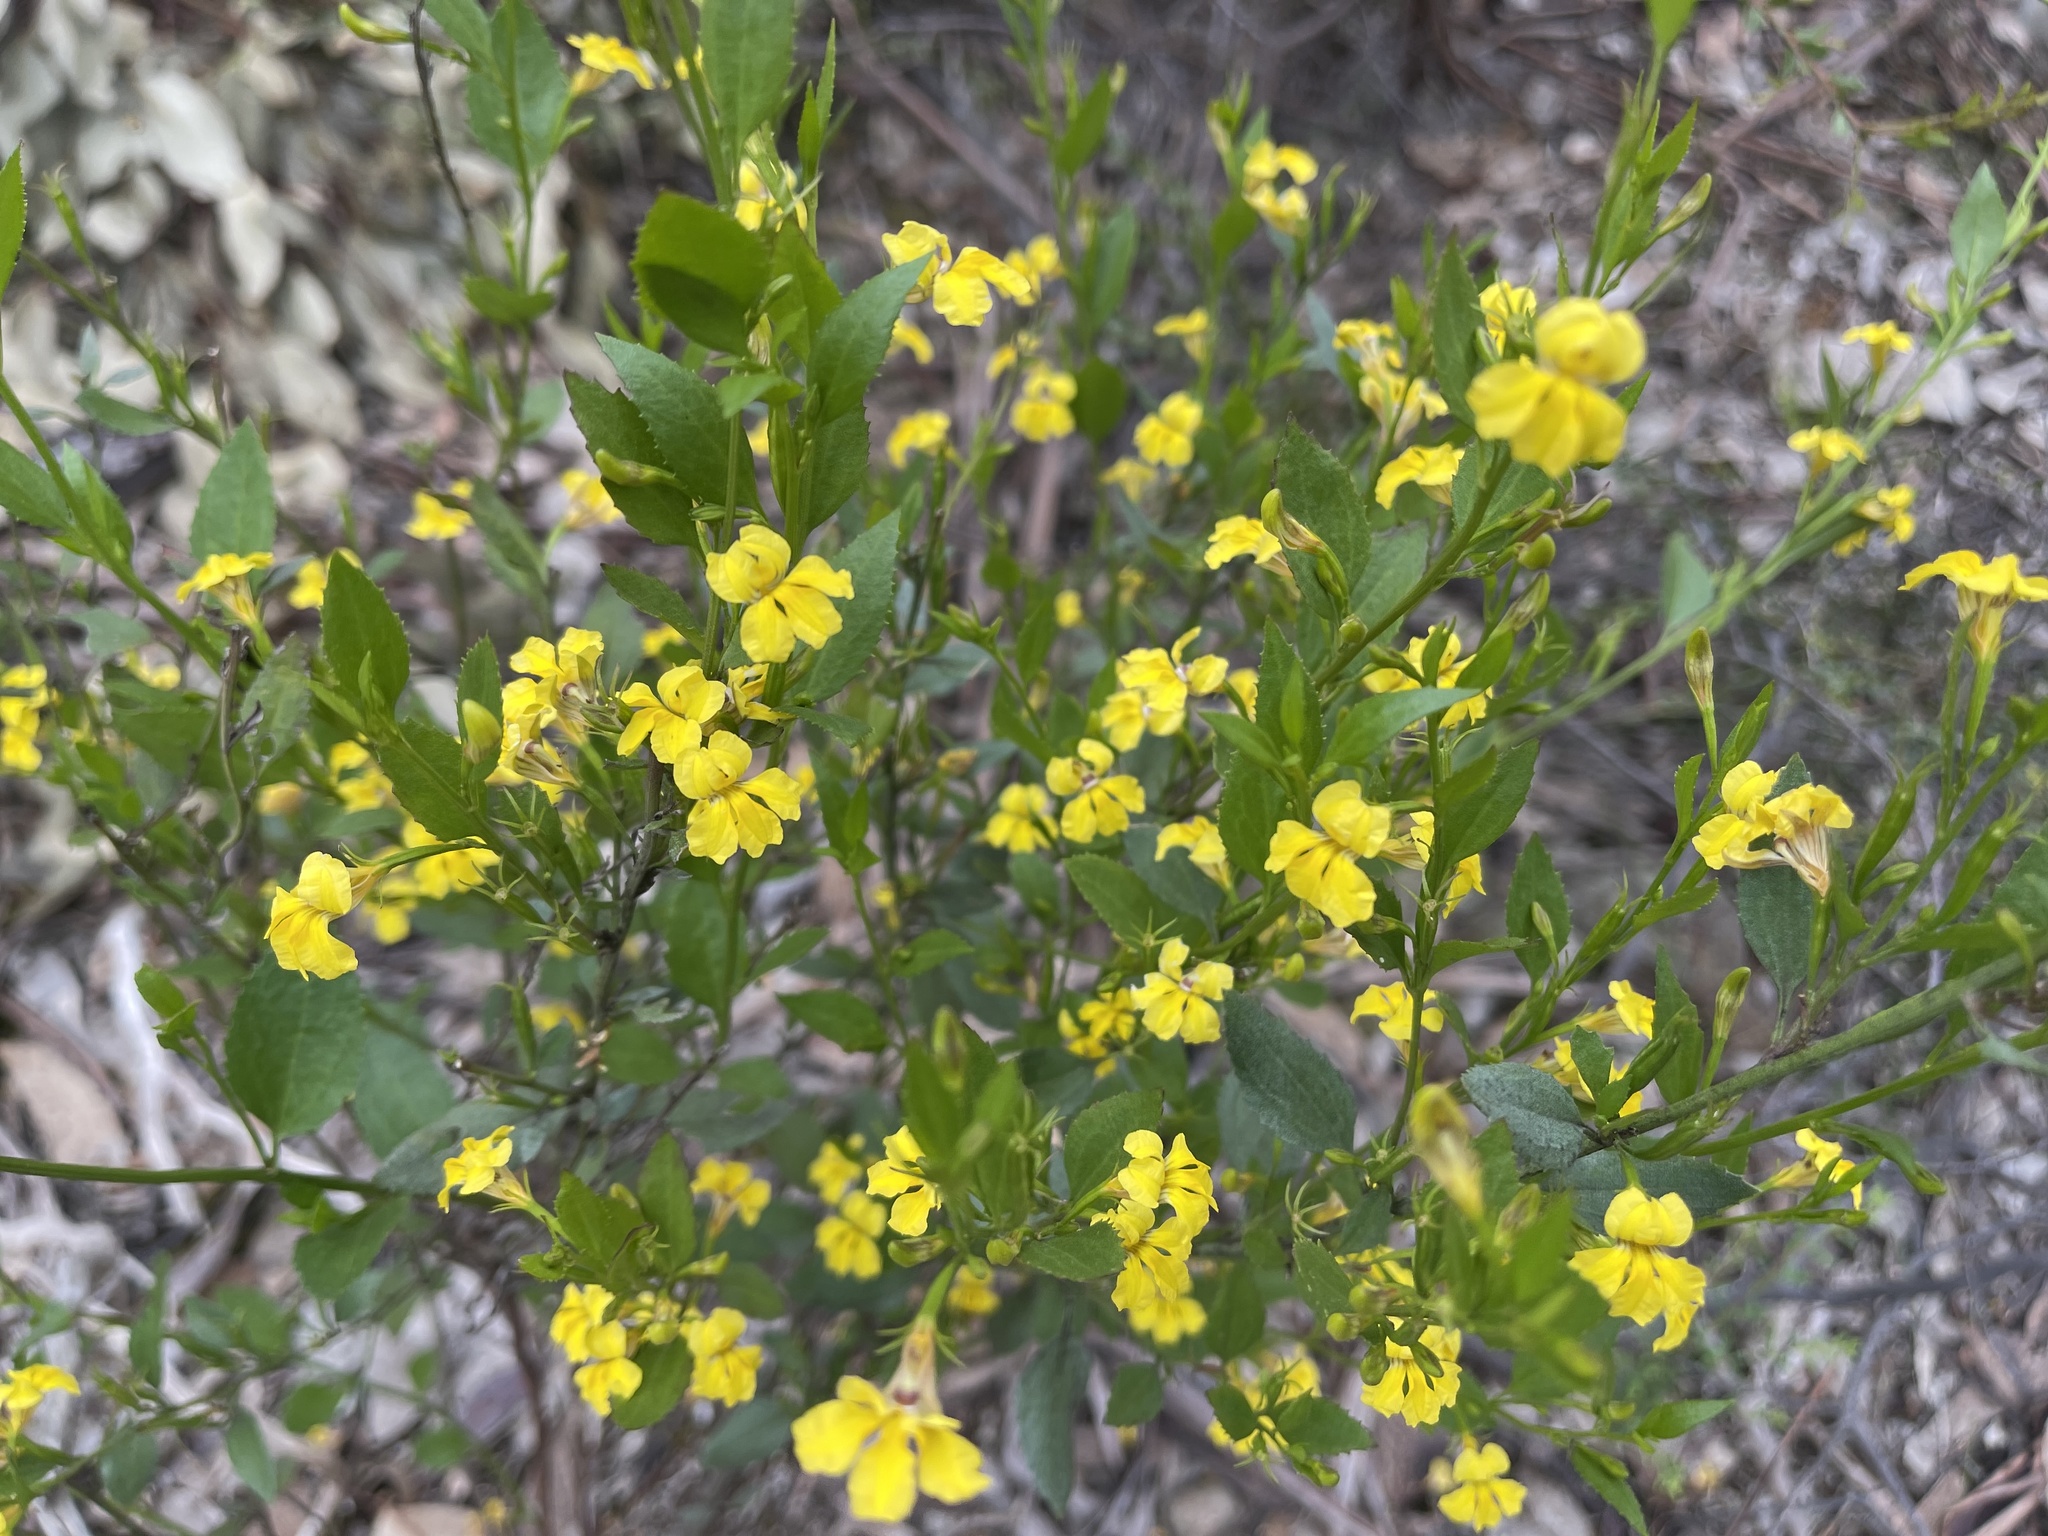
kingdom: Plantae
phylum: Tracheophyta
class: Magnoliopsida
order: Asterales
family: Goodeniaceae
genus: Goodenia
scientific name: Goodenia ovata
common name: Hop goodenia
